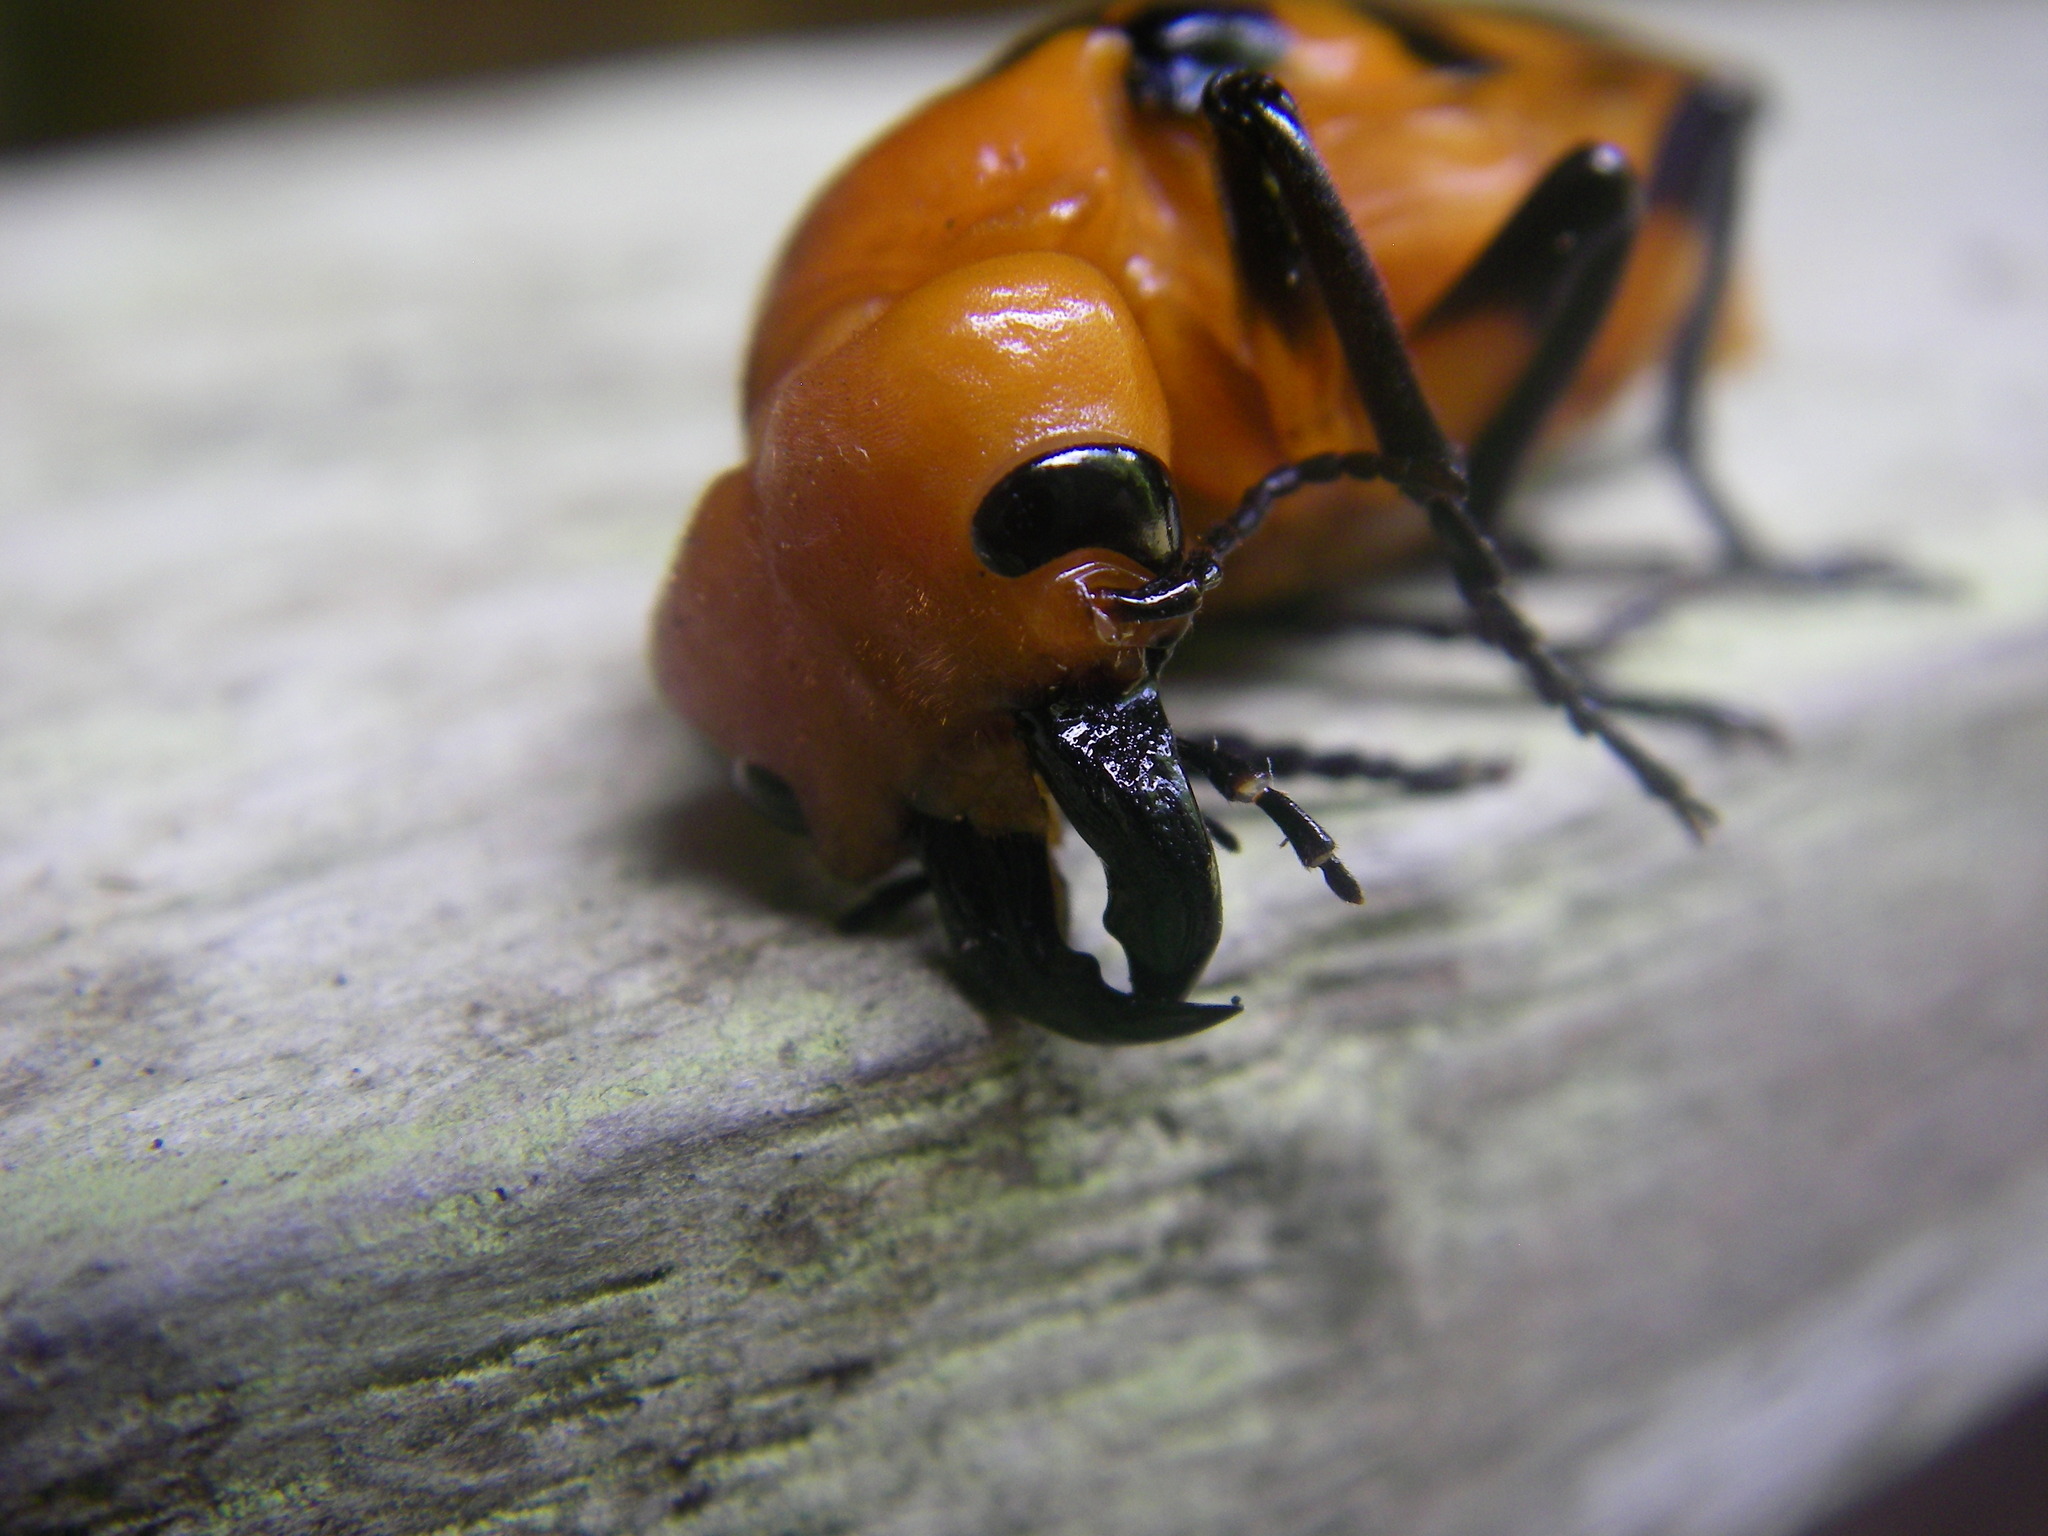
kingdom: Animalia
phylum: Arthropoda
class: Insecta
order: Coleoptera
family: Meloidae
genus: Cissites
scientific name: Cissites auriculata
